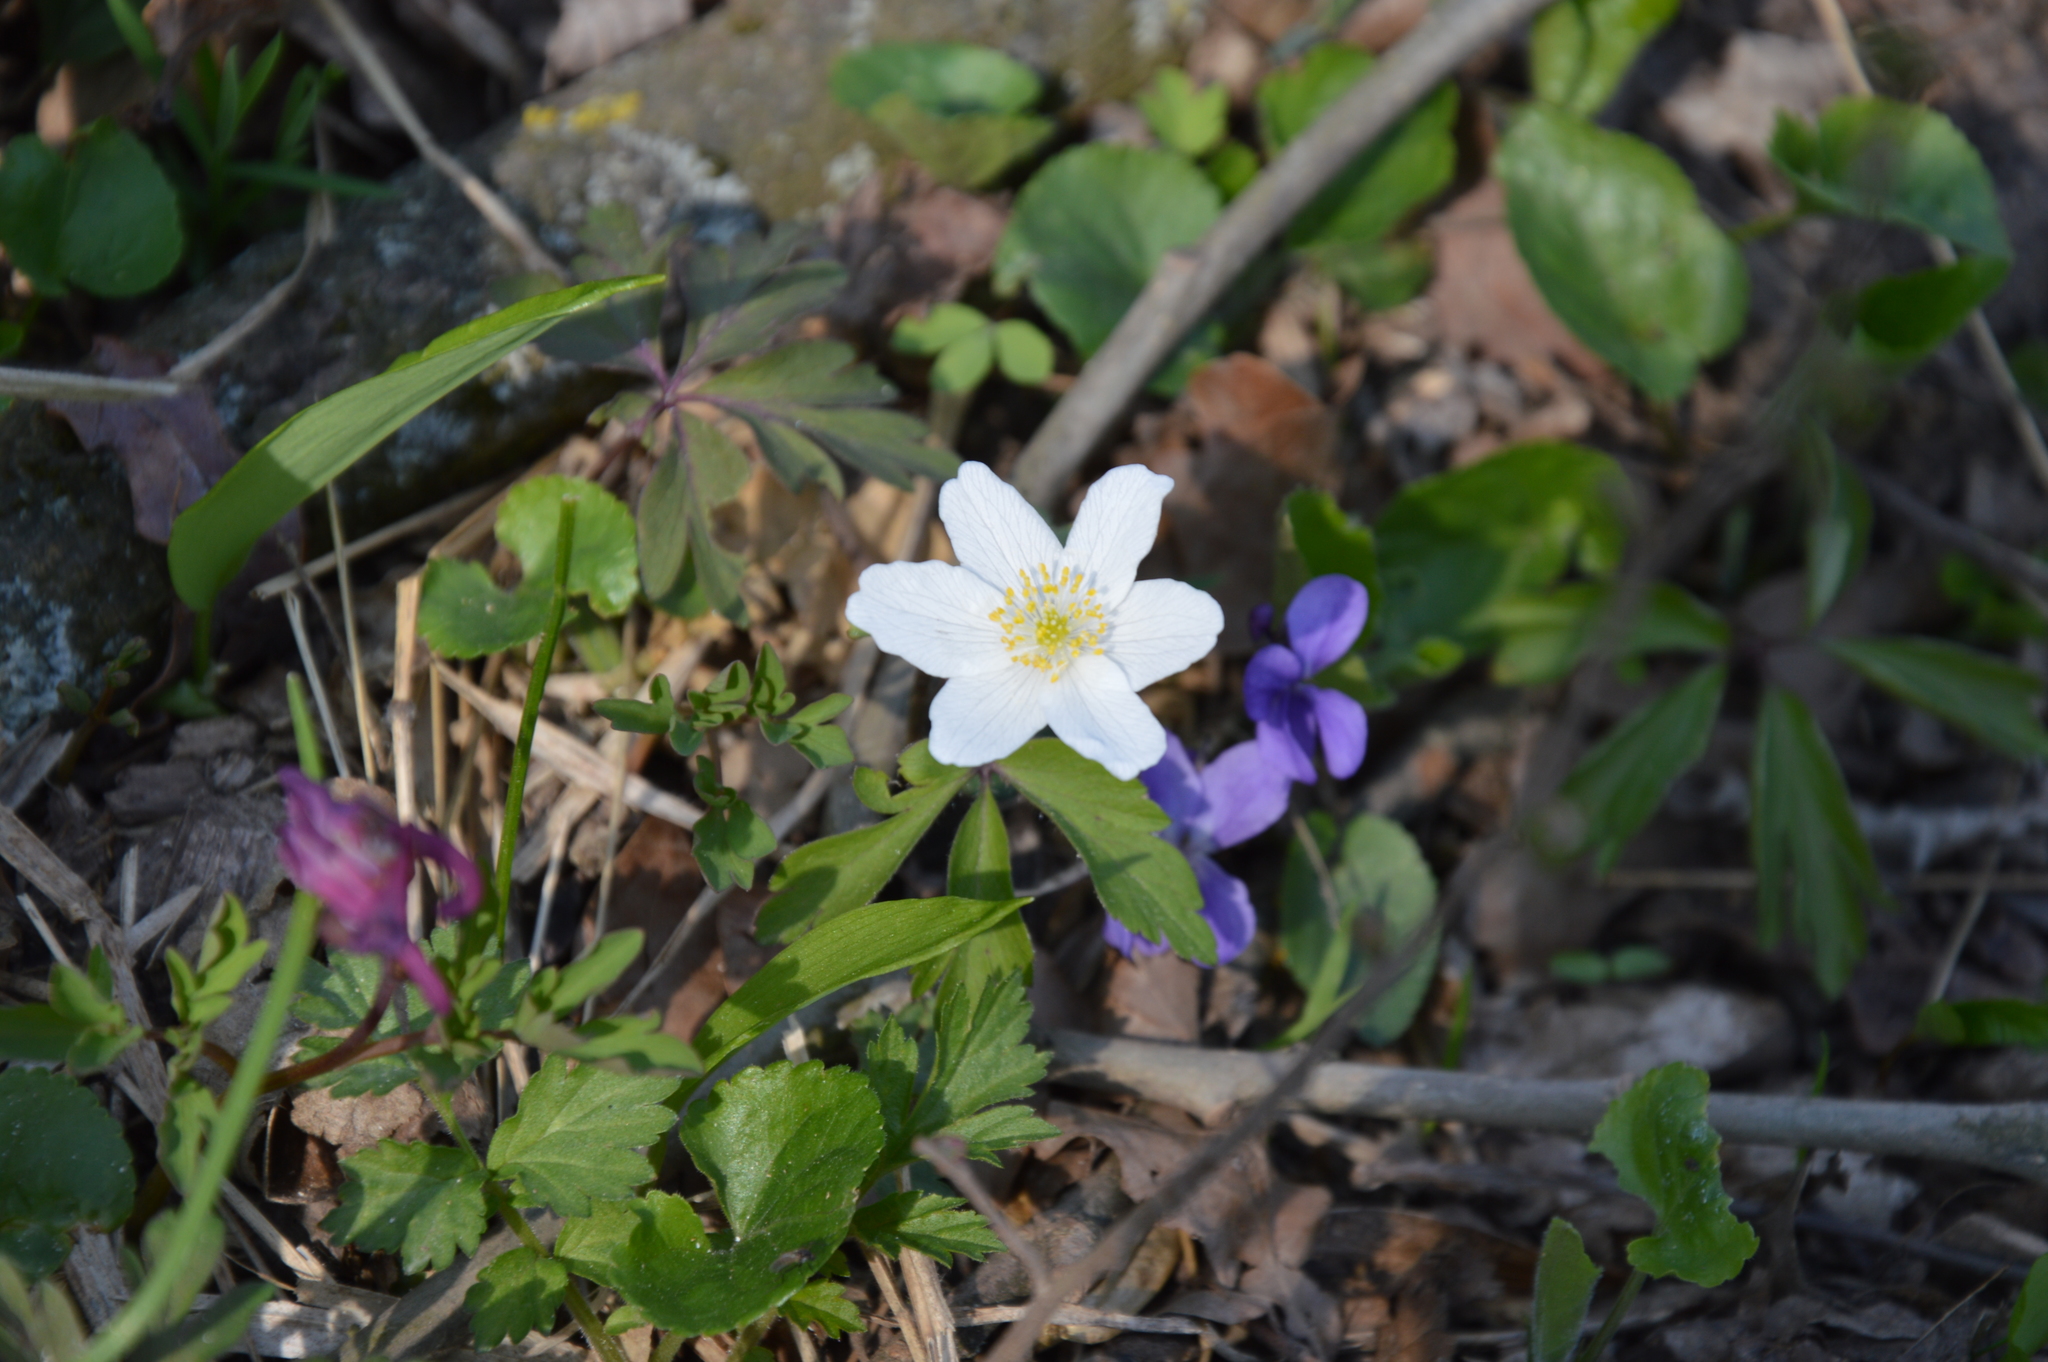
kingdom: Plantae
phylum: Tracheophyta
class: Magnoliopsida
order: Ranunculales
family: Ranunculaceae
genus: Anemone
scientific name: Anemone nemorosa
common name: Wood anemone
